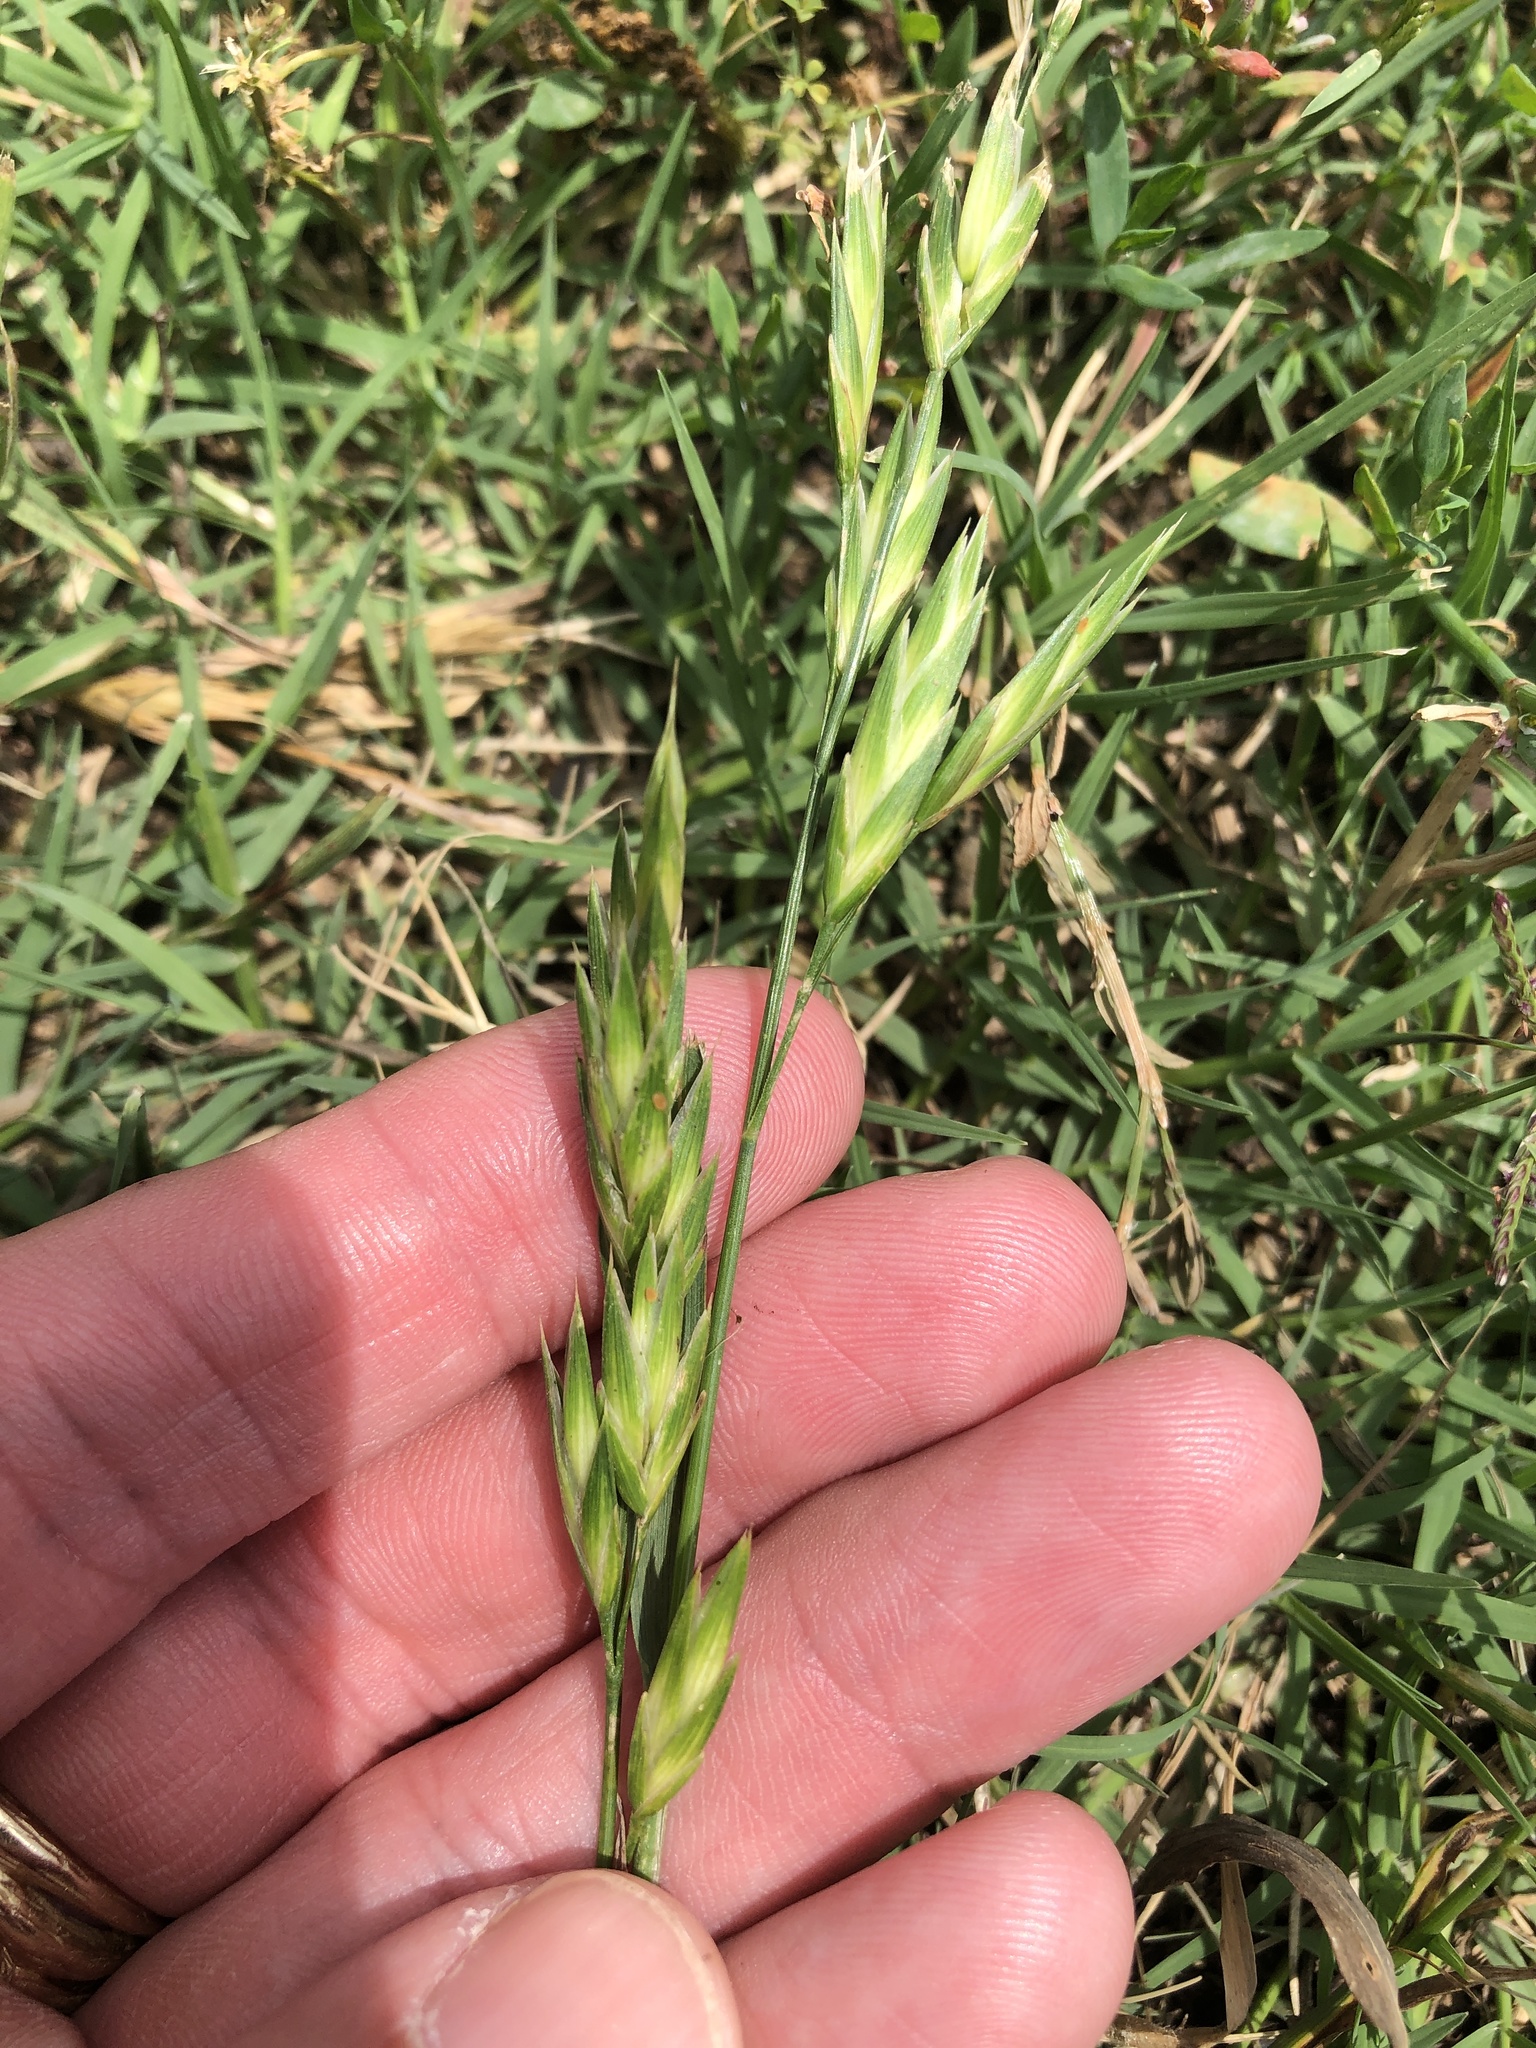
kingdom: Plantae
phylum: Tracheophyta
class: Liliopsida
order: Poales
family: Poaceae
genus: Bromus
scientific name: Bromus catharticus
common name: Rescuegrass
